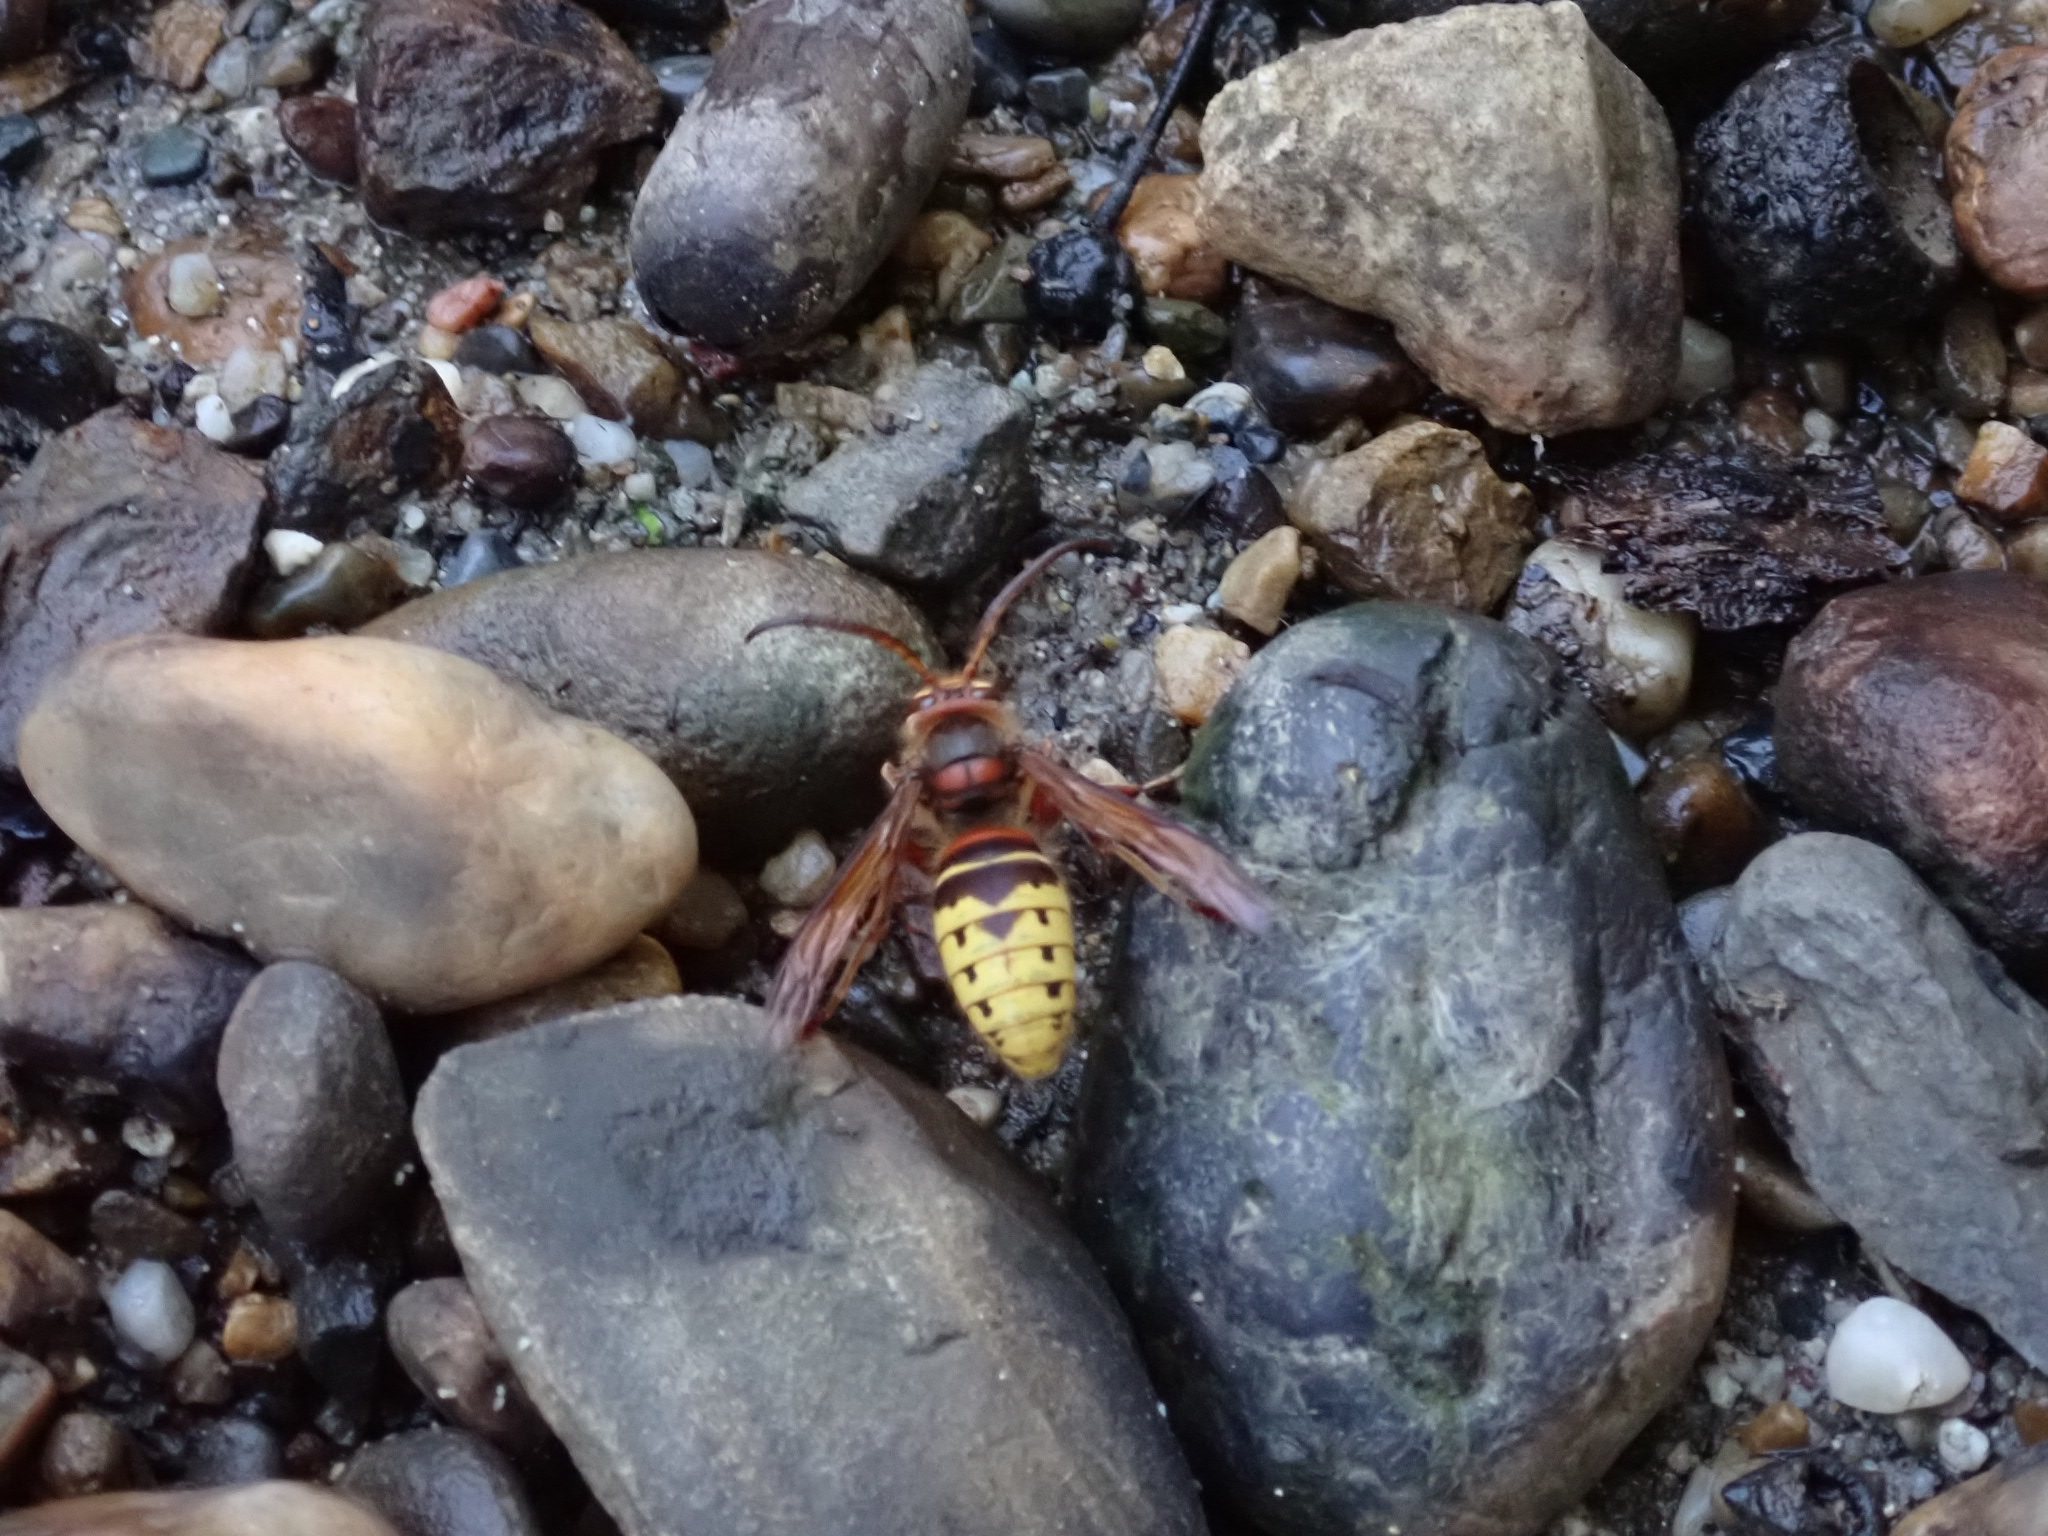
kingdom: Animalia
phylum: Arthropoda
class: Insecta
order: Hymenoptera
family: Vespidae
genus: Vespa
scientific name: Vespa crabro
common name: Hornet
